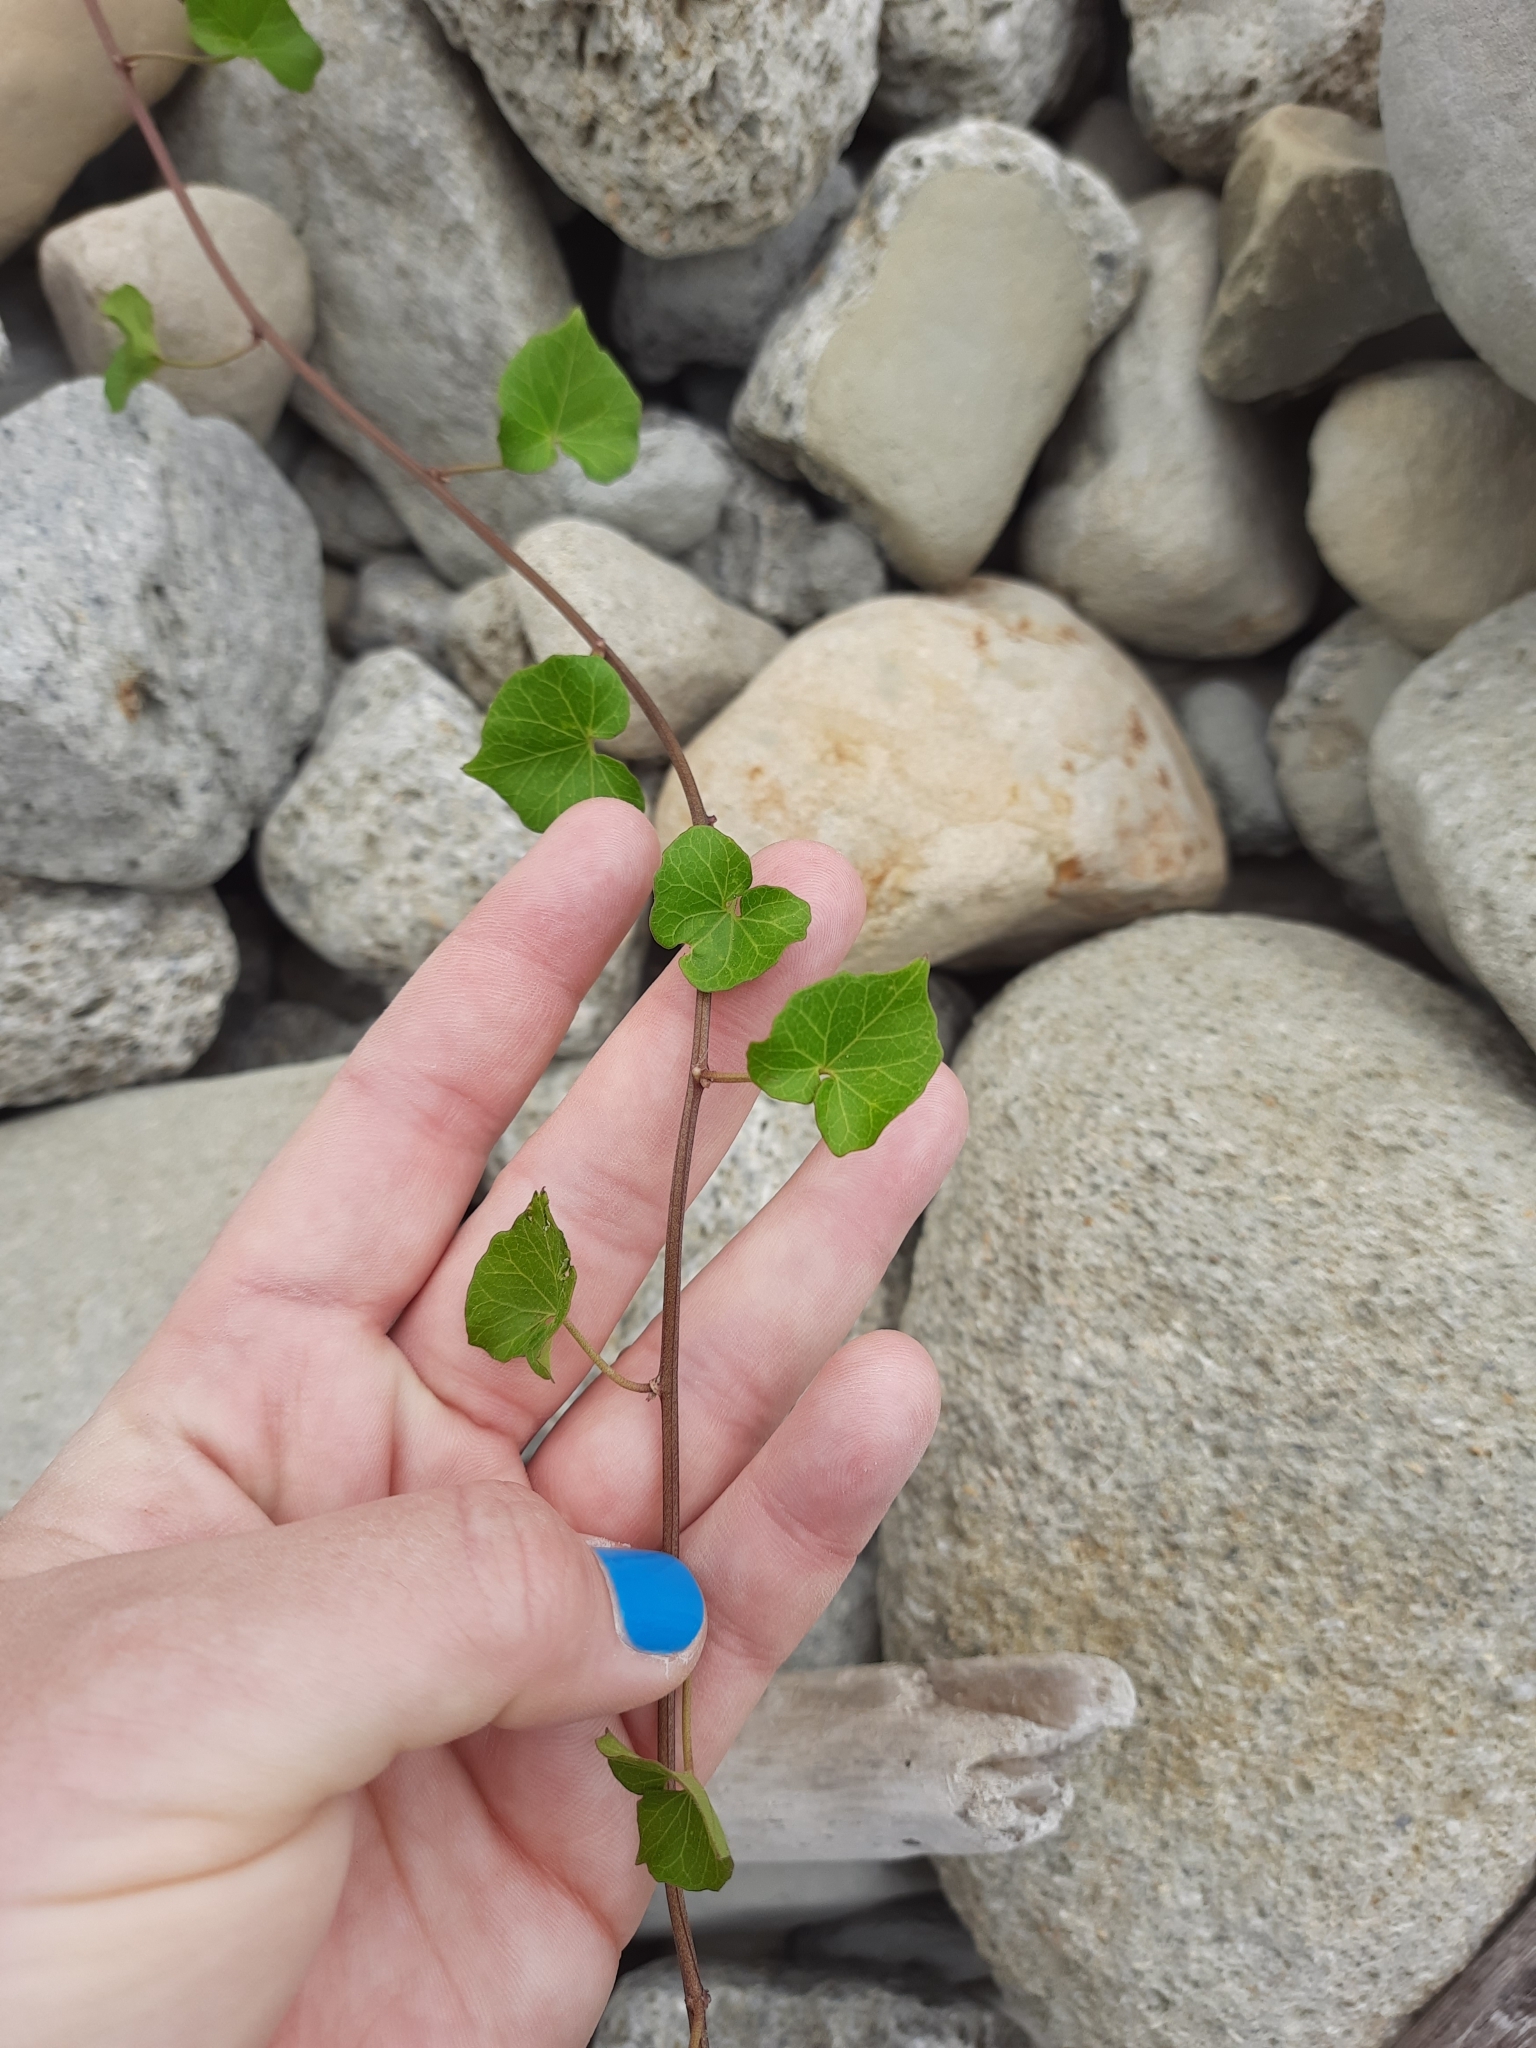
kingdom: Plantae
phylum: Tracheophyta
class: Magnoliopsida
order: Solanales
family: Convolvulaceae
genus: Calystegia
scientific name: Calystegia tuguriorum
